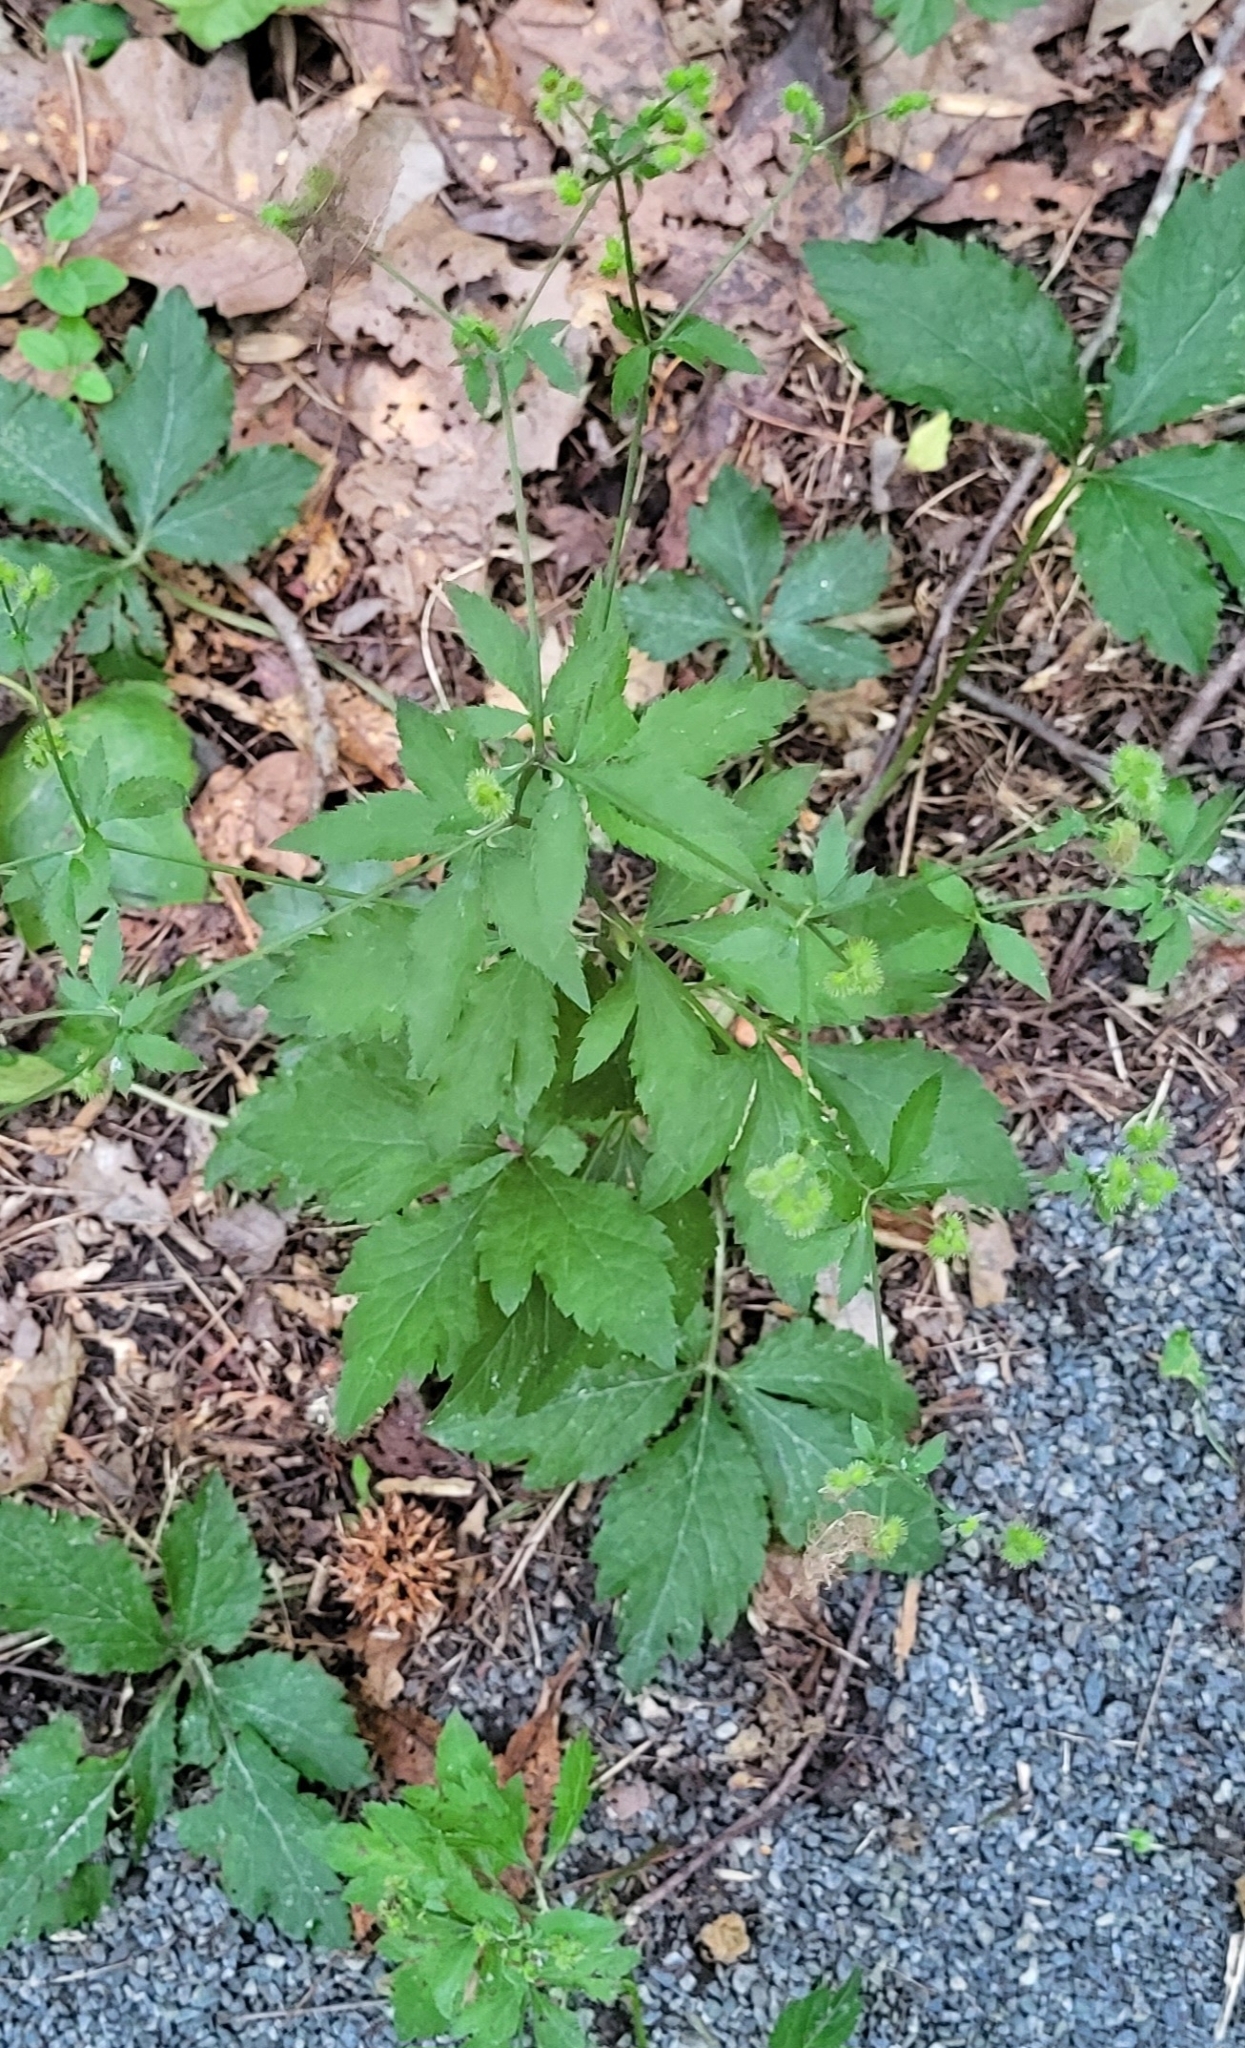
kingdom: Plantae
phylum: Tracheophyta
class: Magnoliopsida
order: Apiales
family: Apiaceae
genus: Sanicula
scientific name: Sanicula canadensis
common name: Canada sanicle
